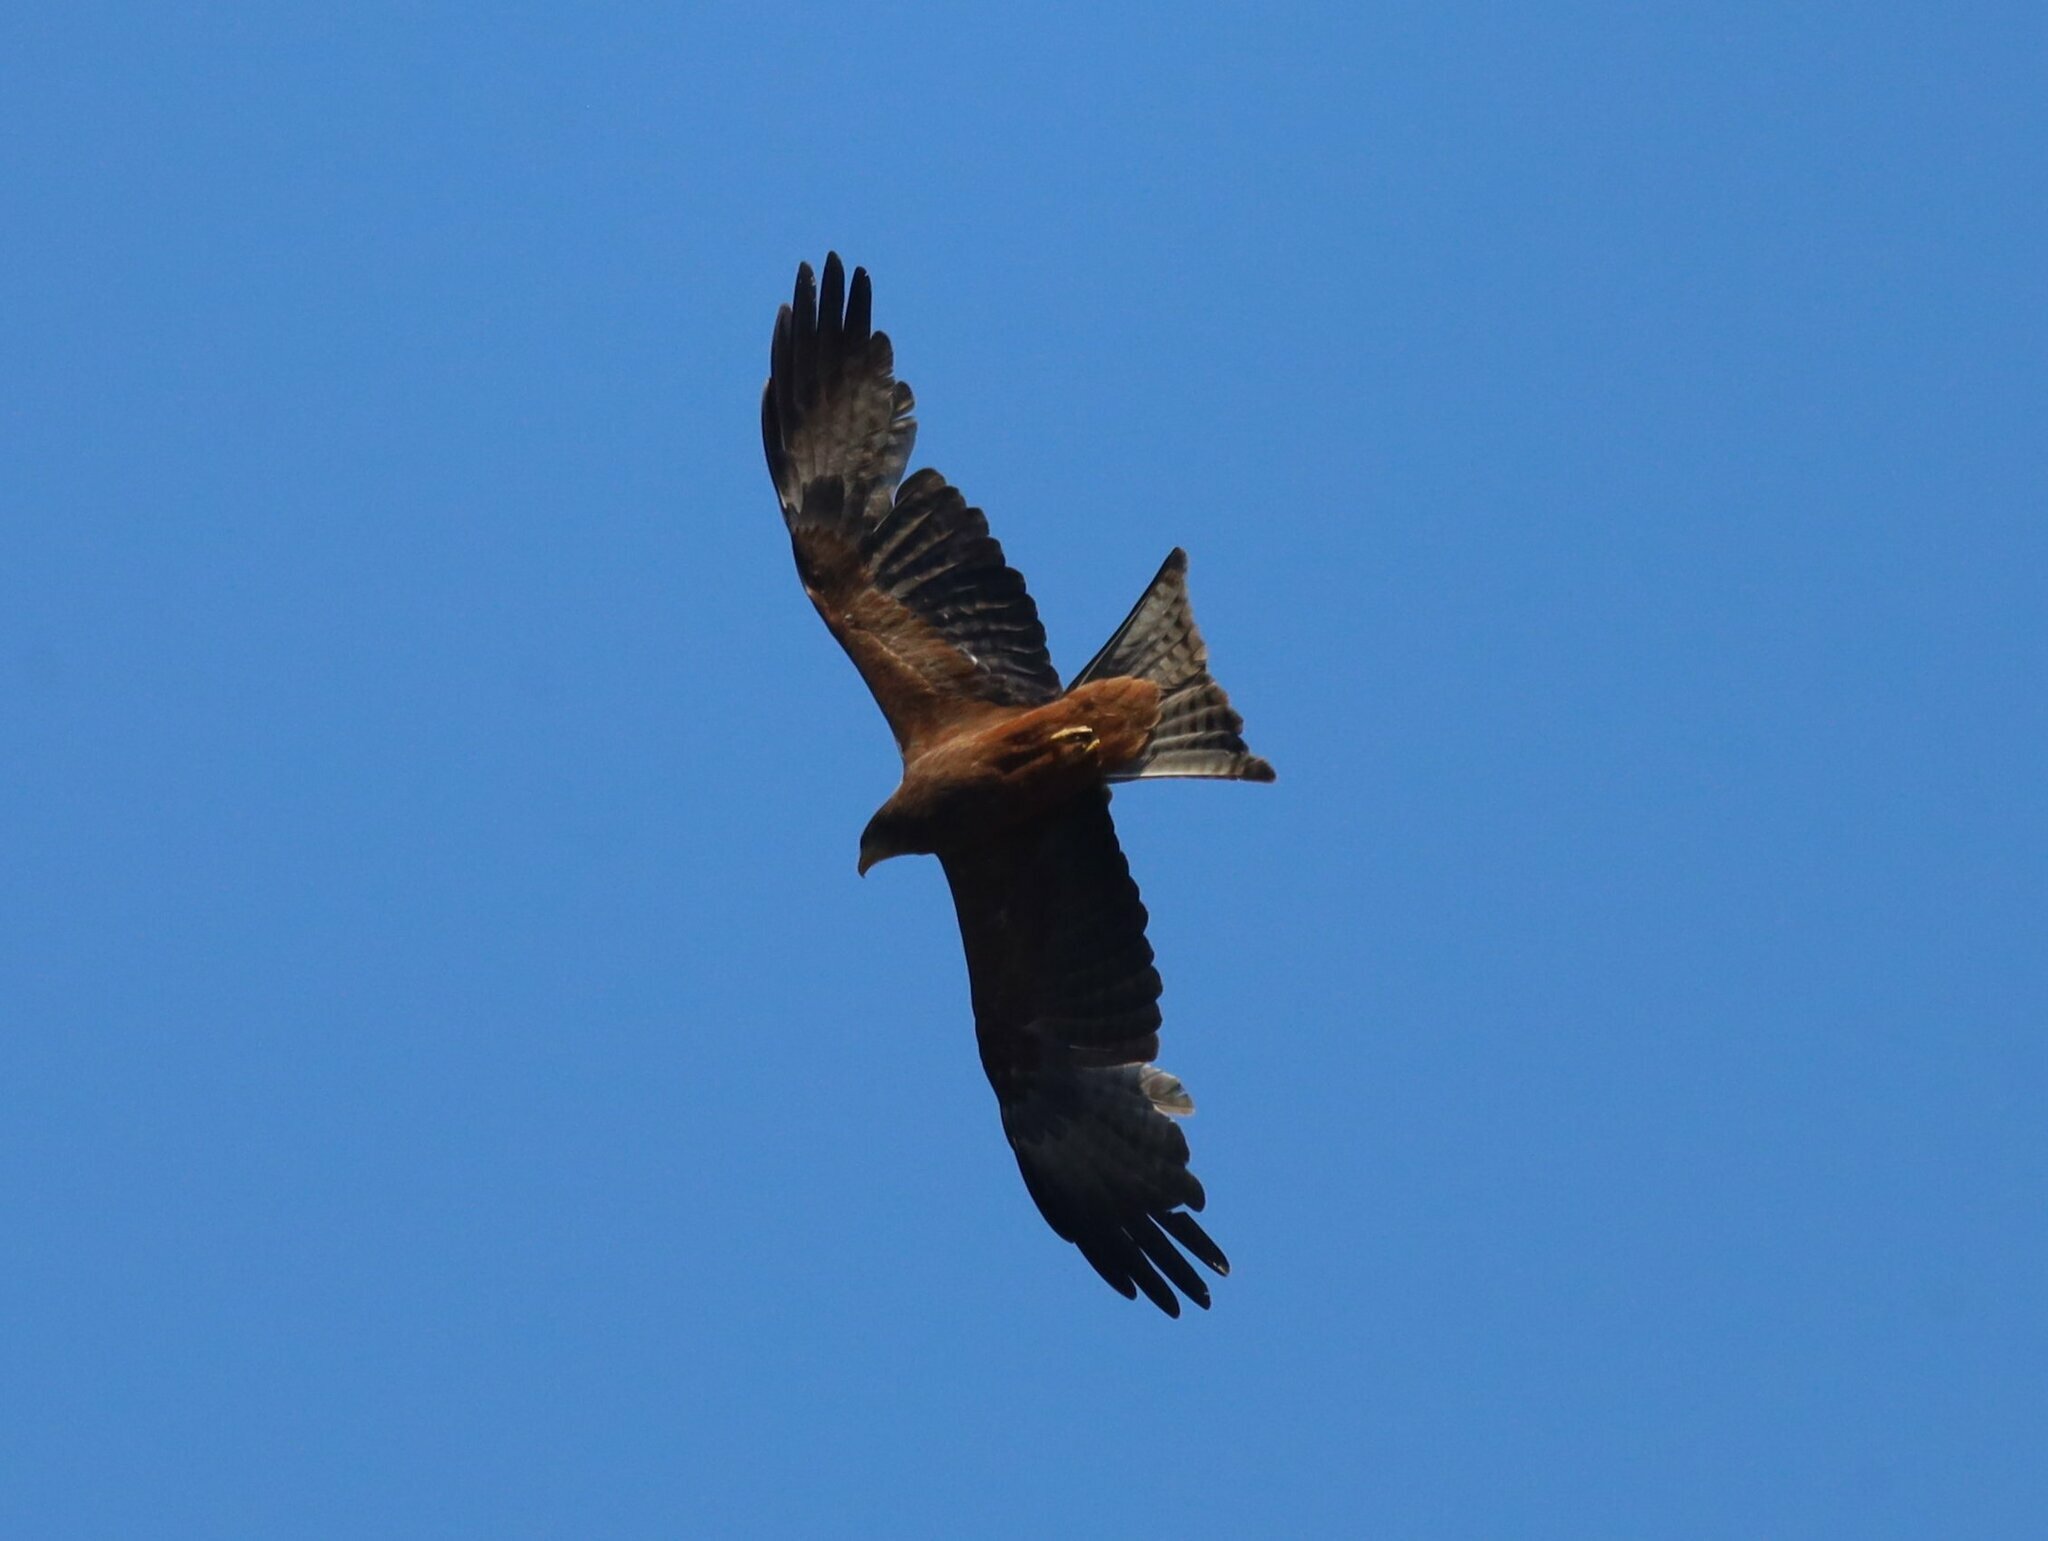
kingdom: Animalia
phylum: Chordata
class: Aves
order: Accipitriformes
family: Accipitridae
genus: Milvus
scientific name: Milvus migrans
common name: Black kite
